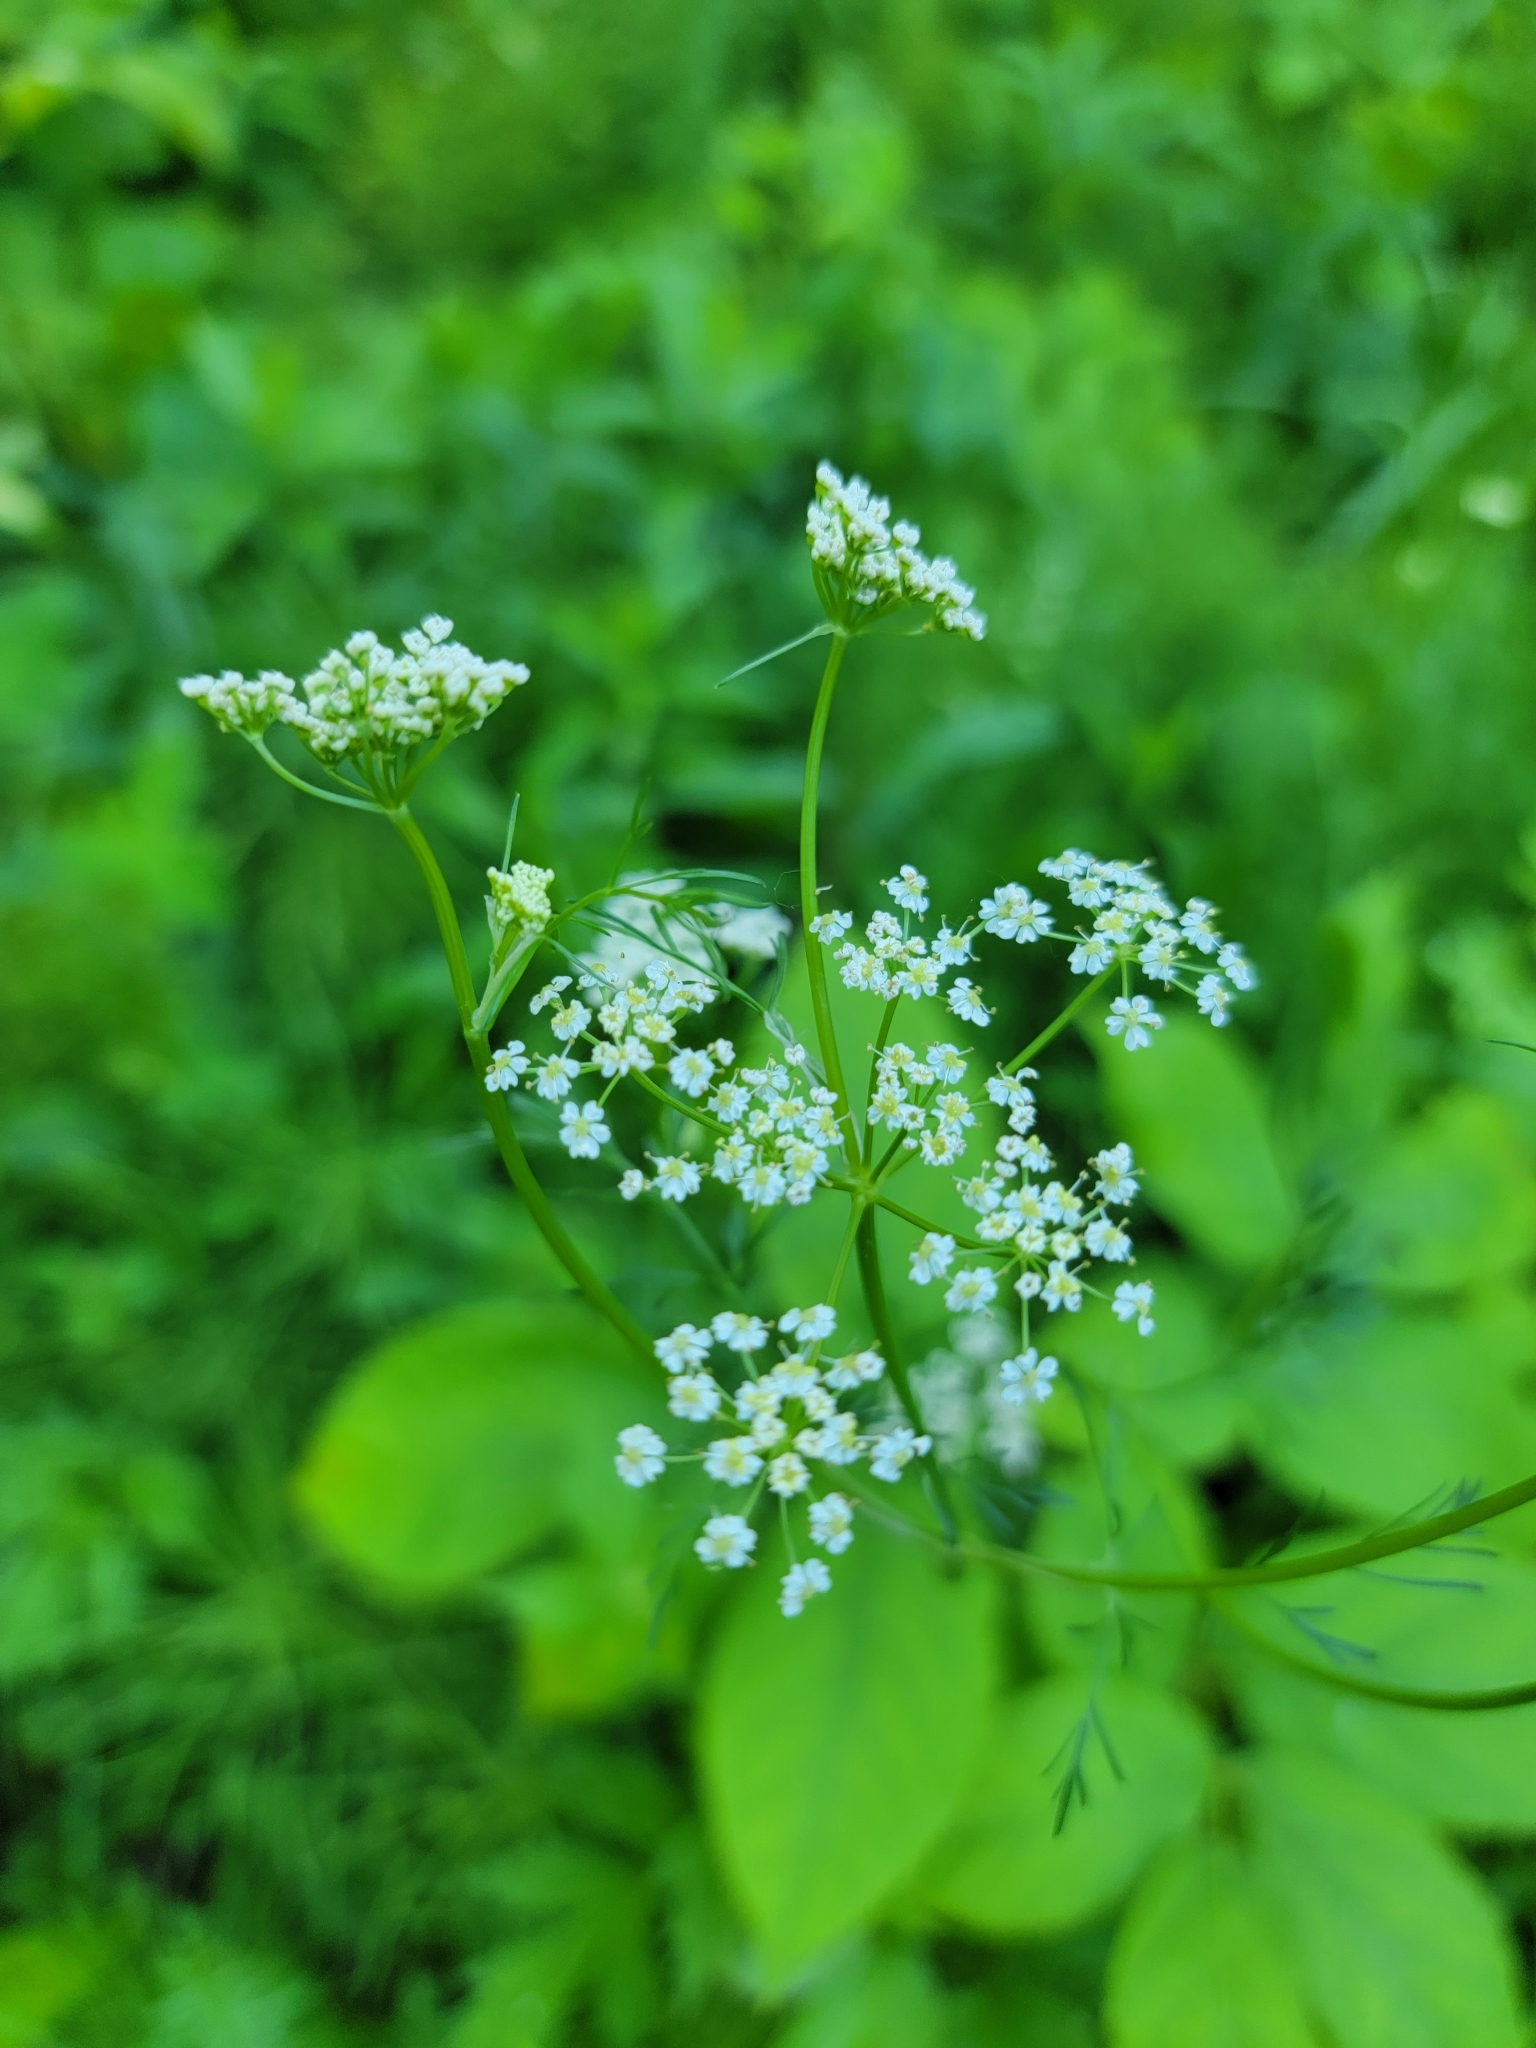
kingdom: Plantae
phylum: Tracheophyta
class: Magnoliopsida
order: Apiales
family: Apiaceae
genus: Carum
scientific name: Carum carvi
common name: Caraway
